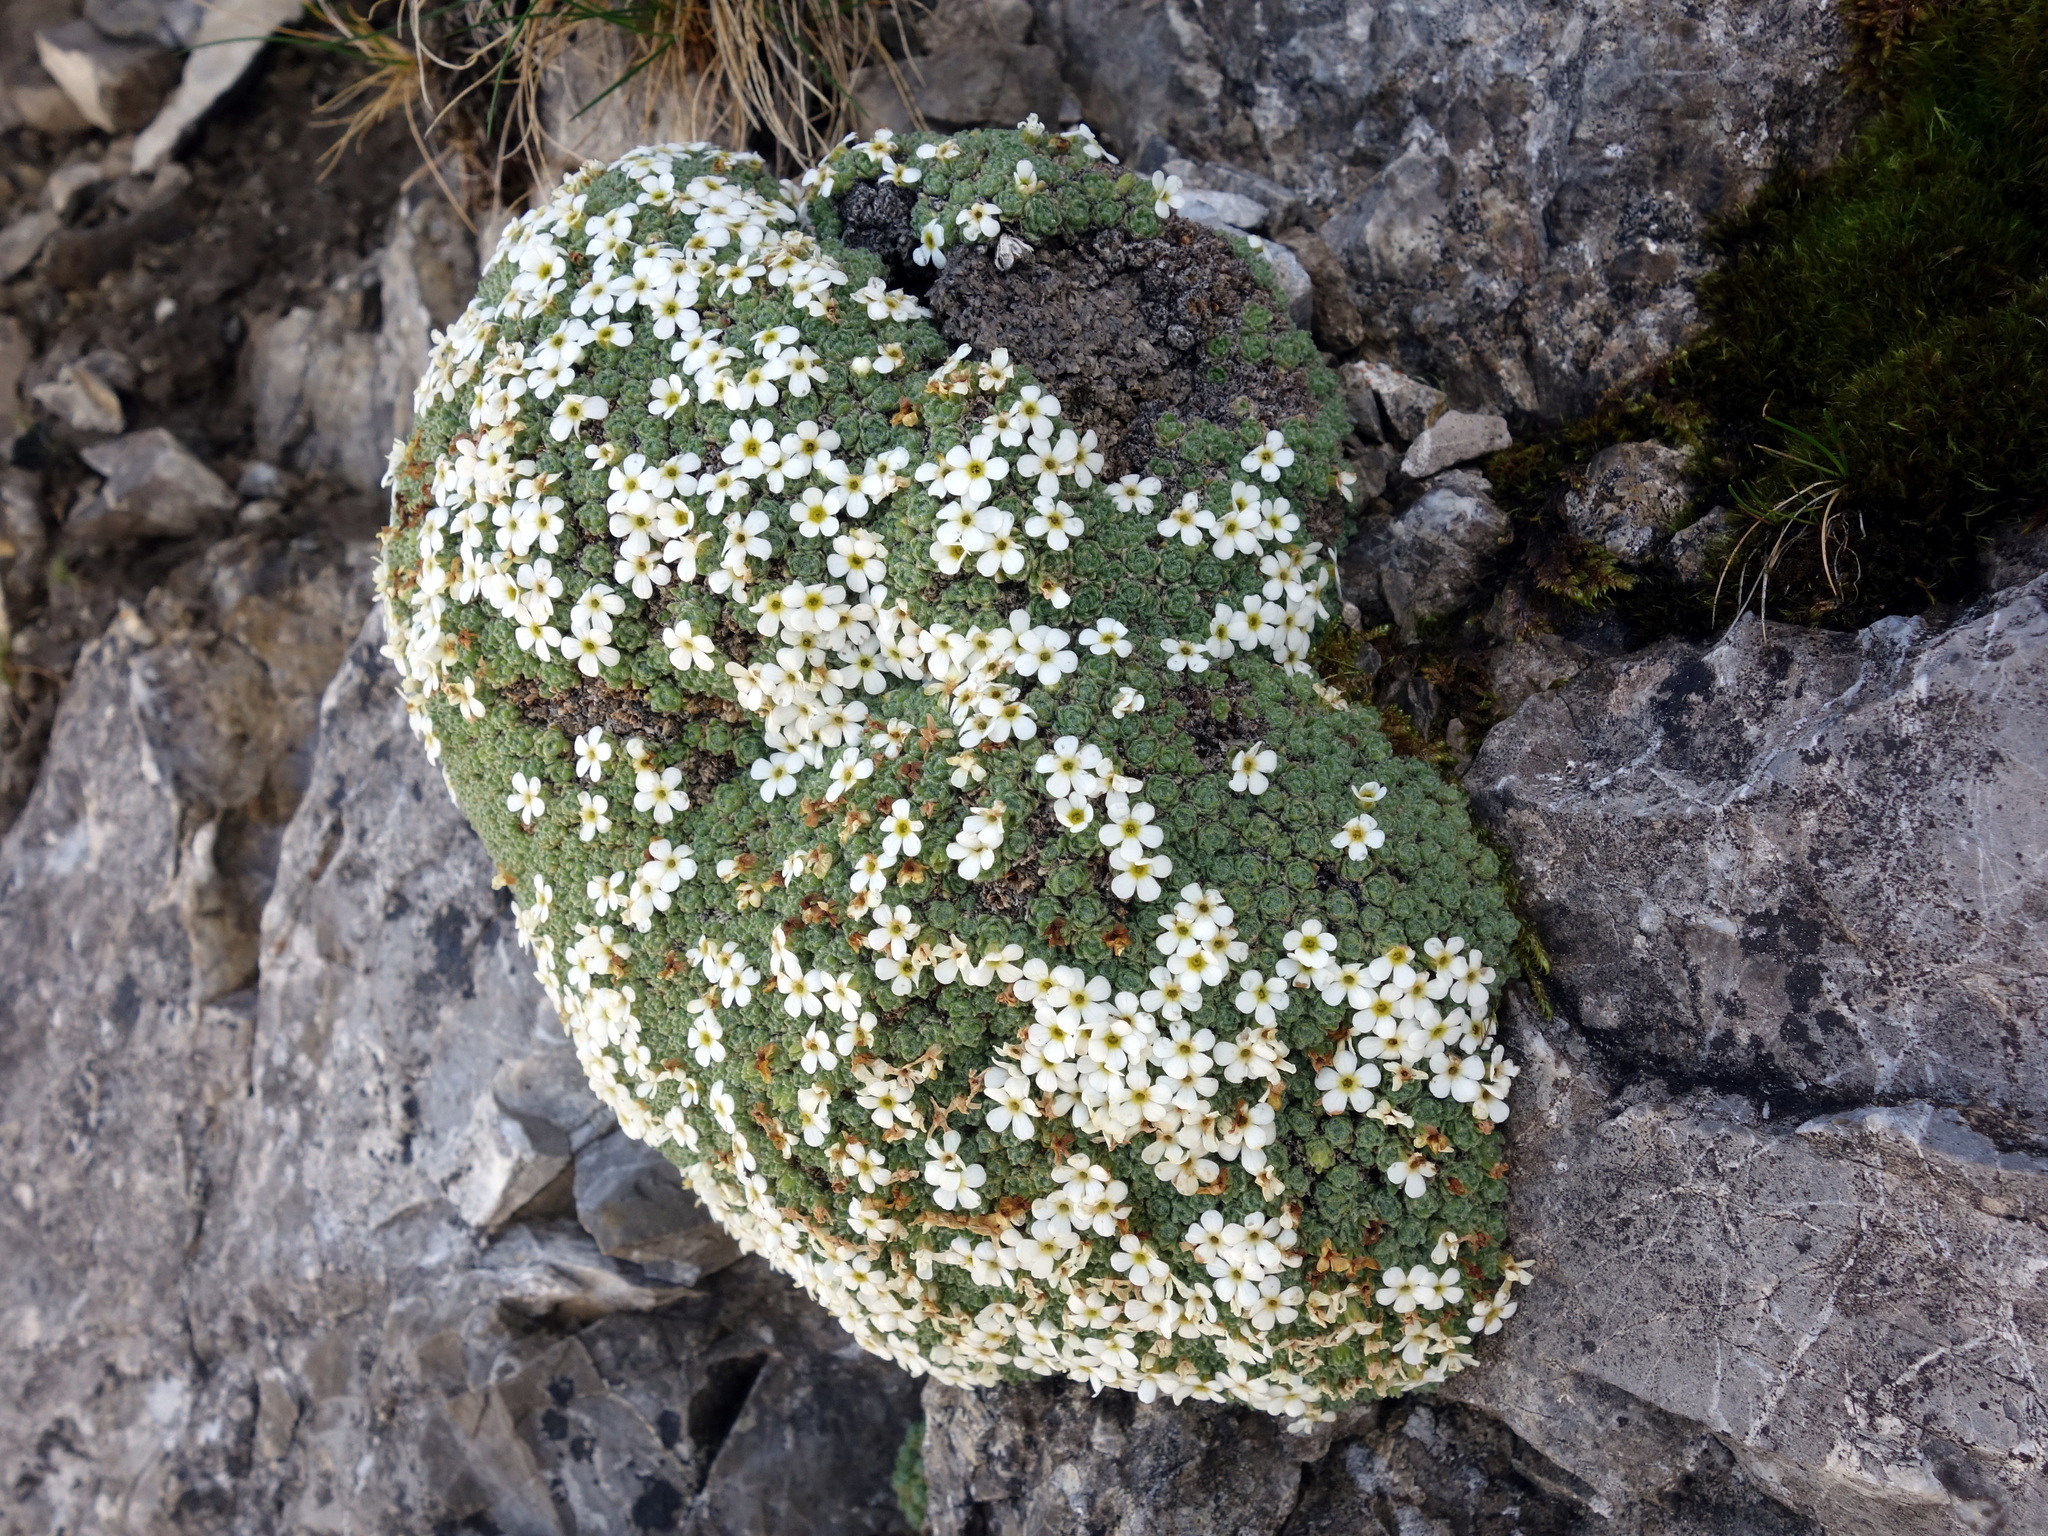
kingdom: Plantae
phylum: Tracheophyta
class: Magnoliopsida
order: Ericales
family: Primulaceae
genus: Androsace
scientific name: Androsace helvetica
